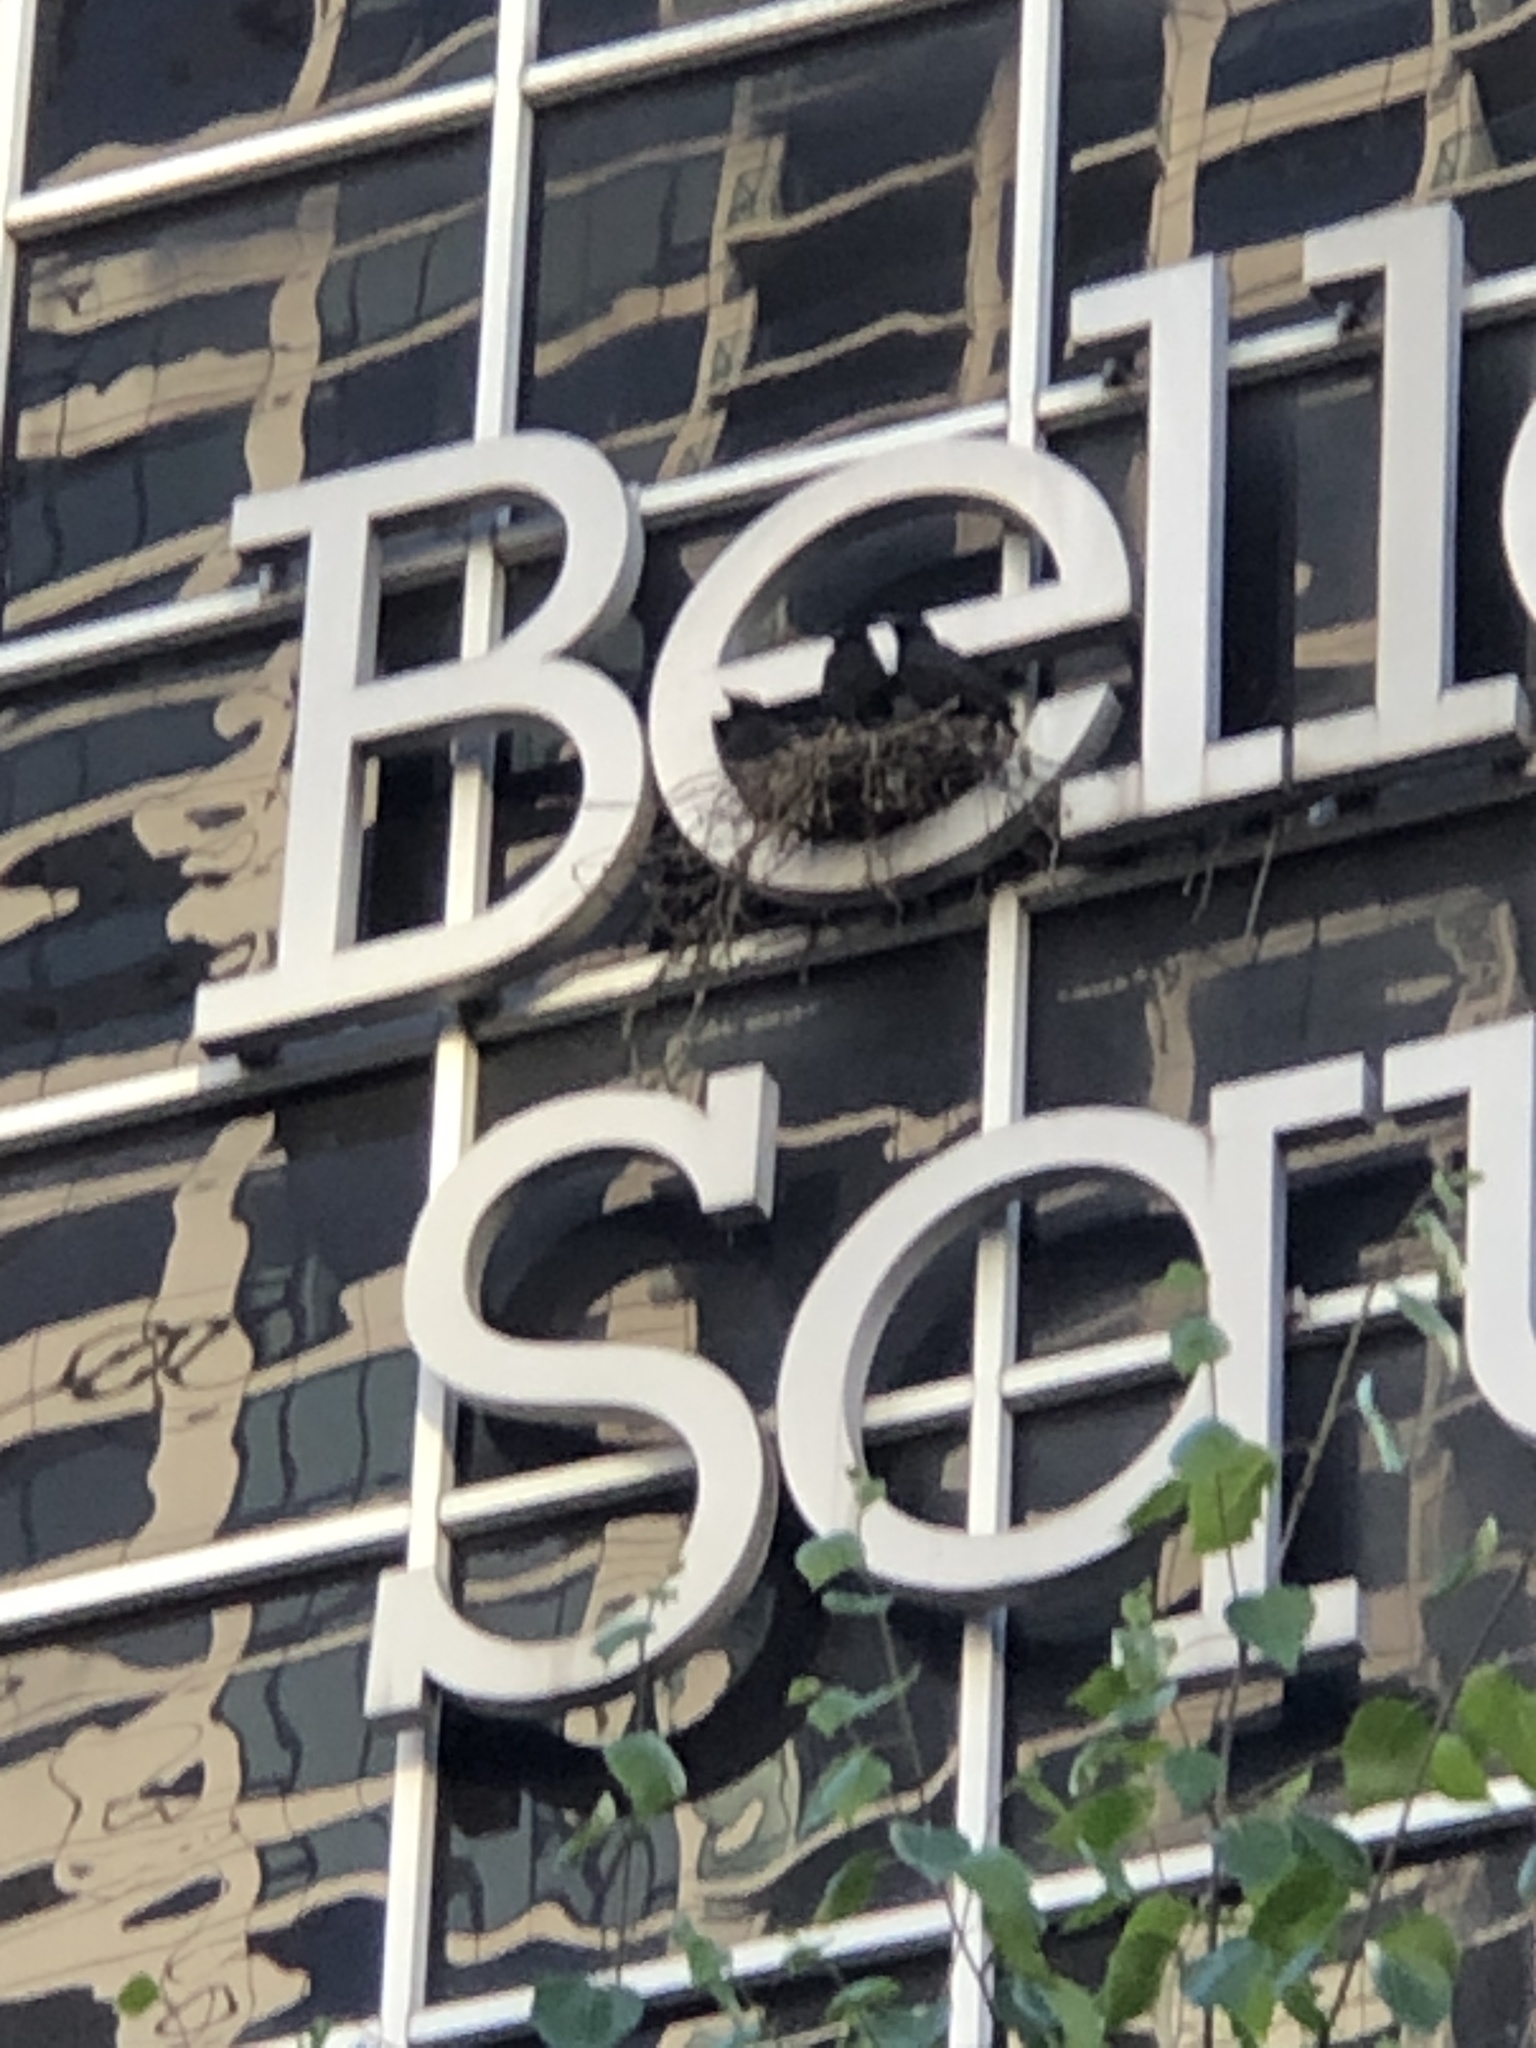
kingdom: Animalia
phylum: Chordata
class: Aves
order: Passeriformes
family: Corvidae
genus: Corvus
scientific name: Corvus brachyrhynchos
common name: American crow
